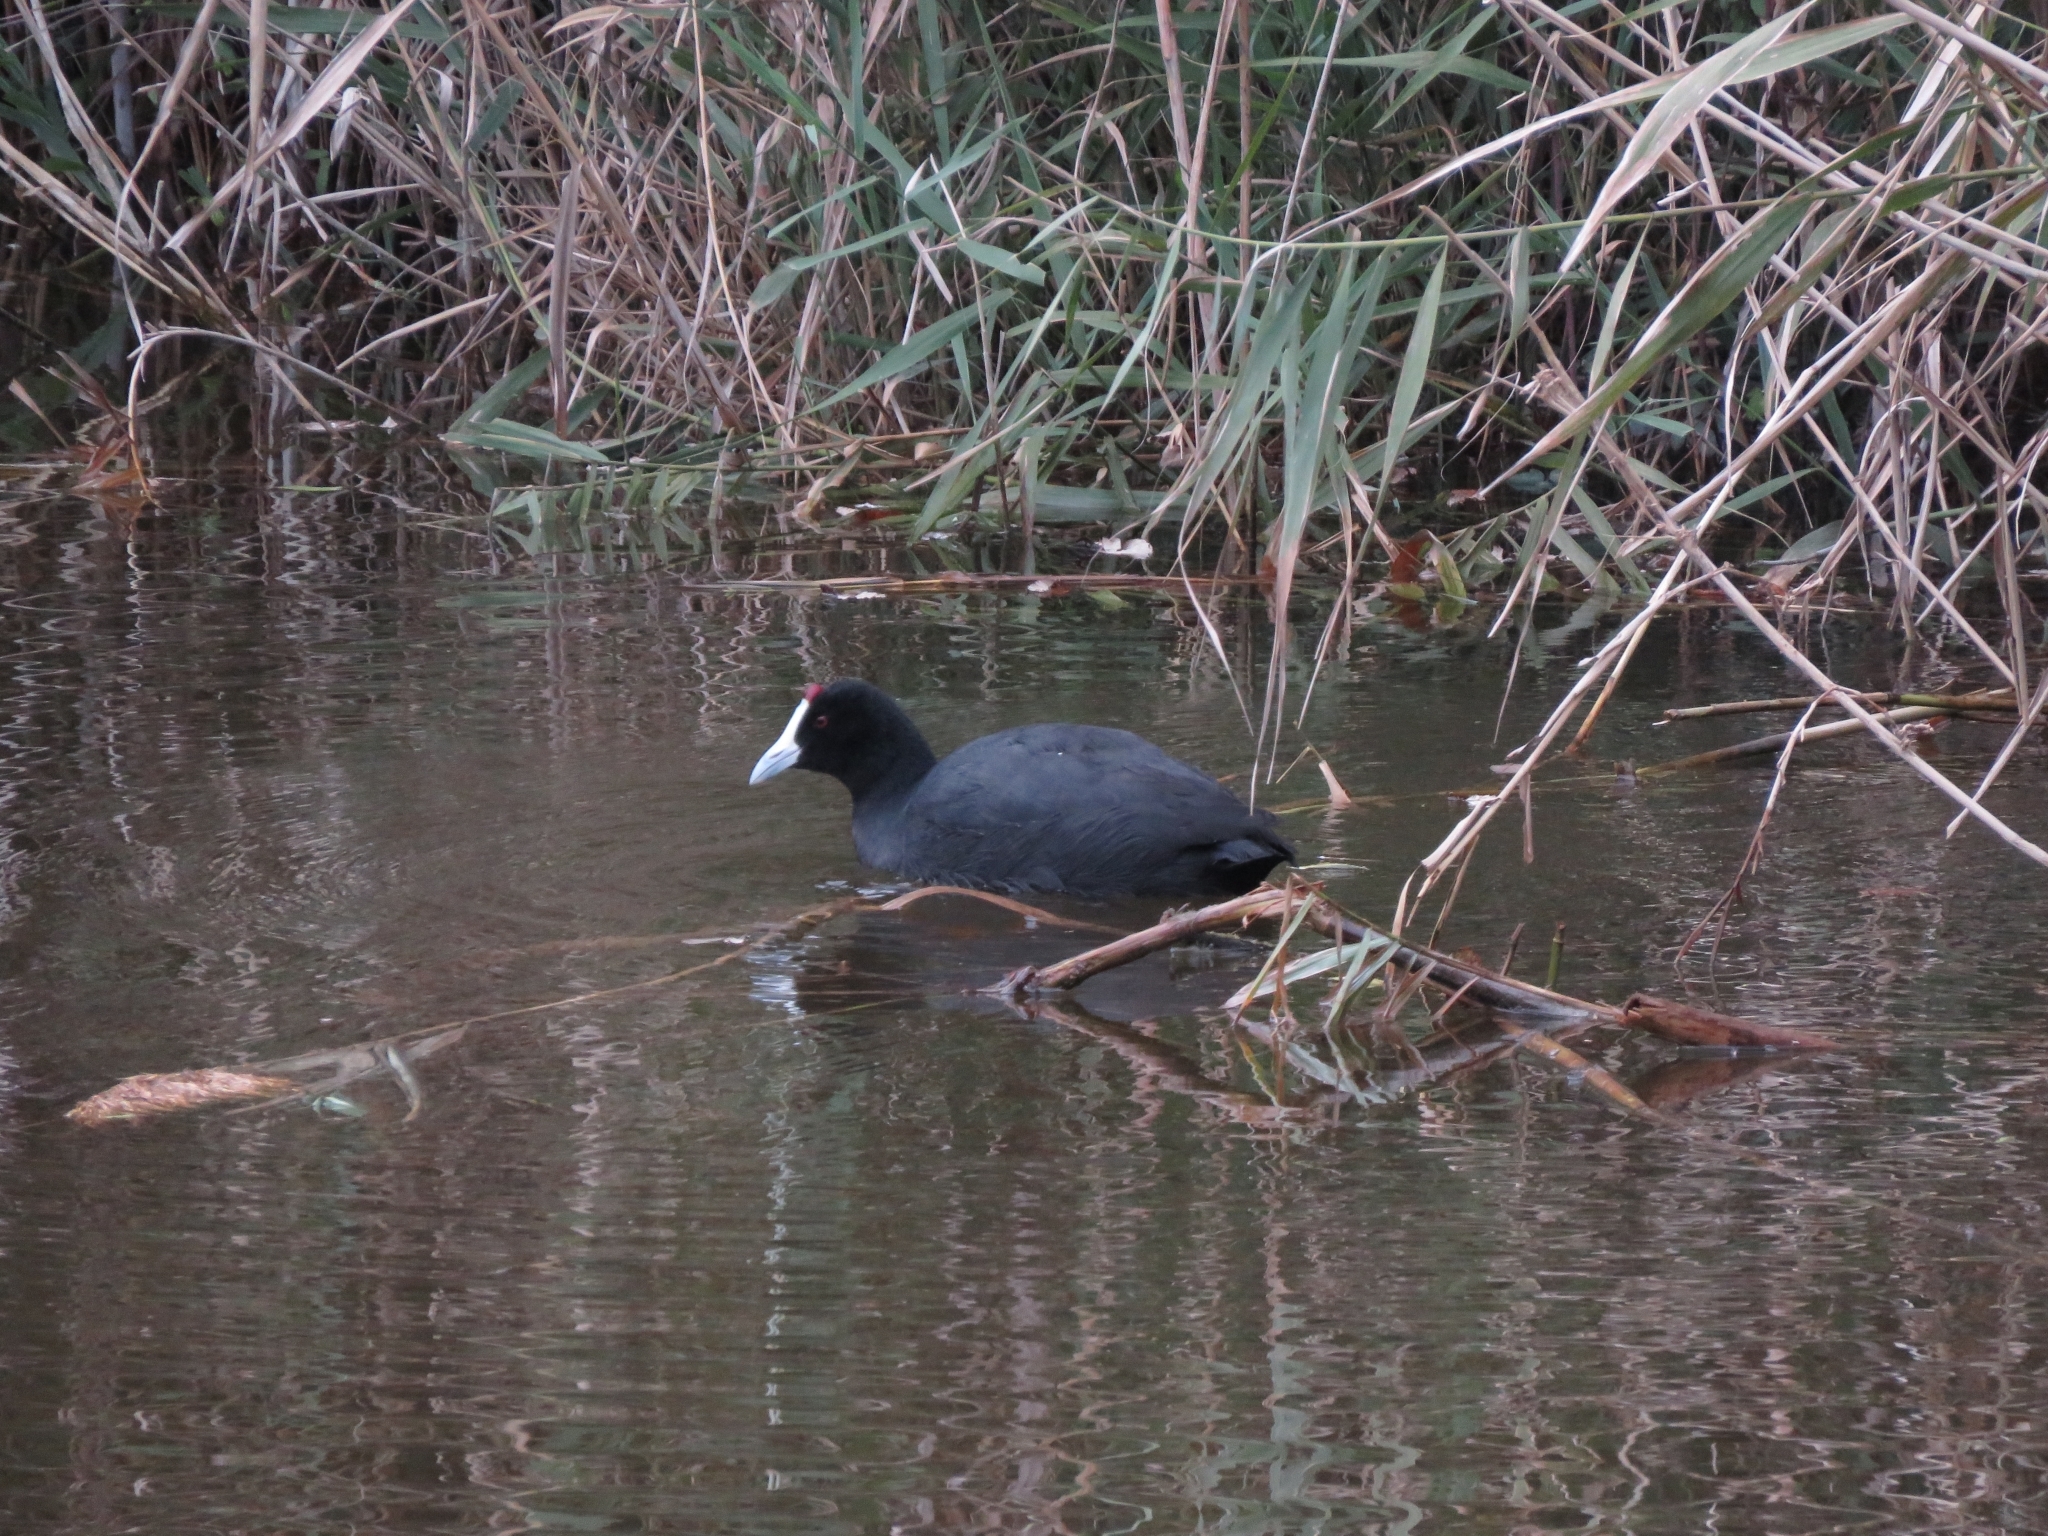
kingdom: Animalia
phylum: Chordata
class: Aves
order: Gruiformes
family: Rallidae
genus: Fulica
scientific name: Fulica cristata
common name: Red-knobbed coot
